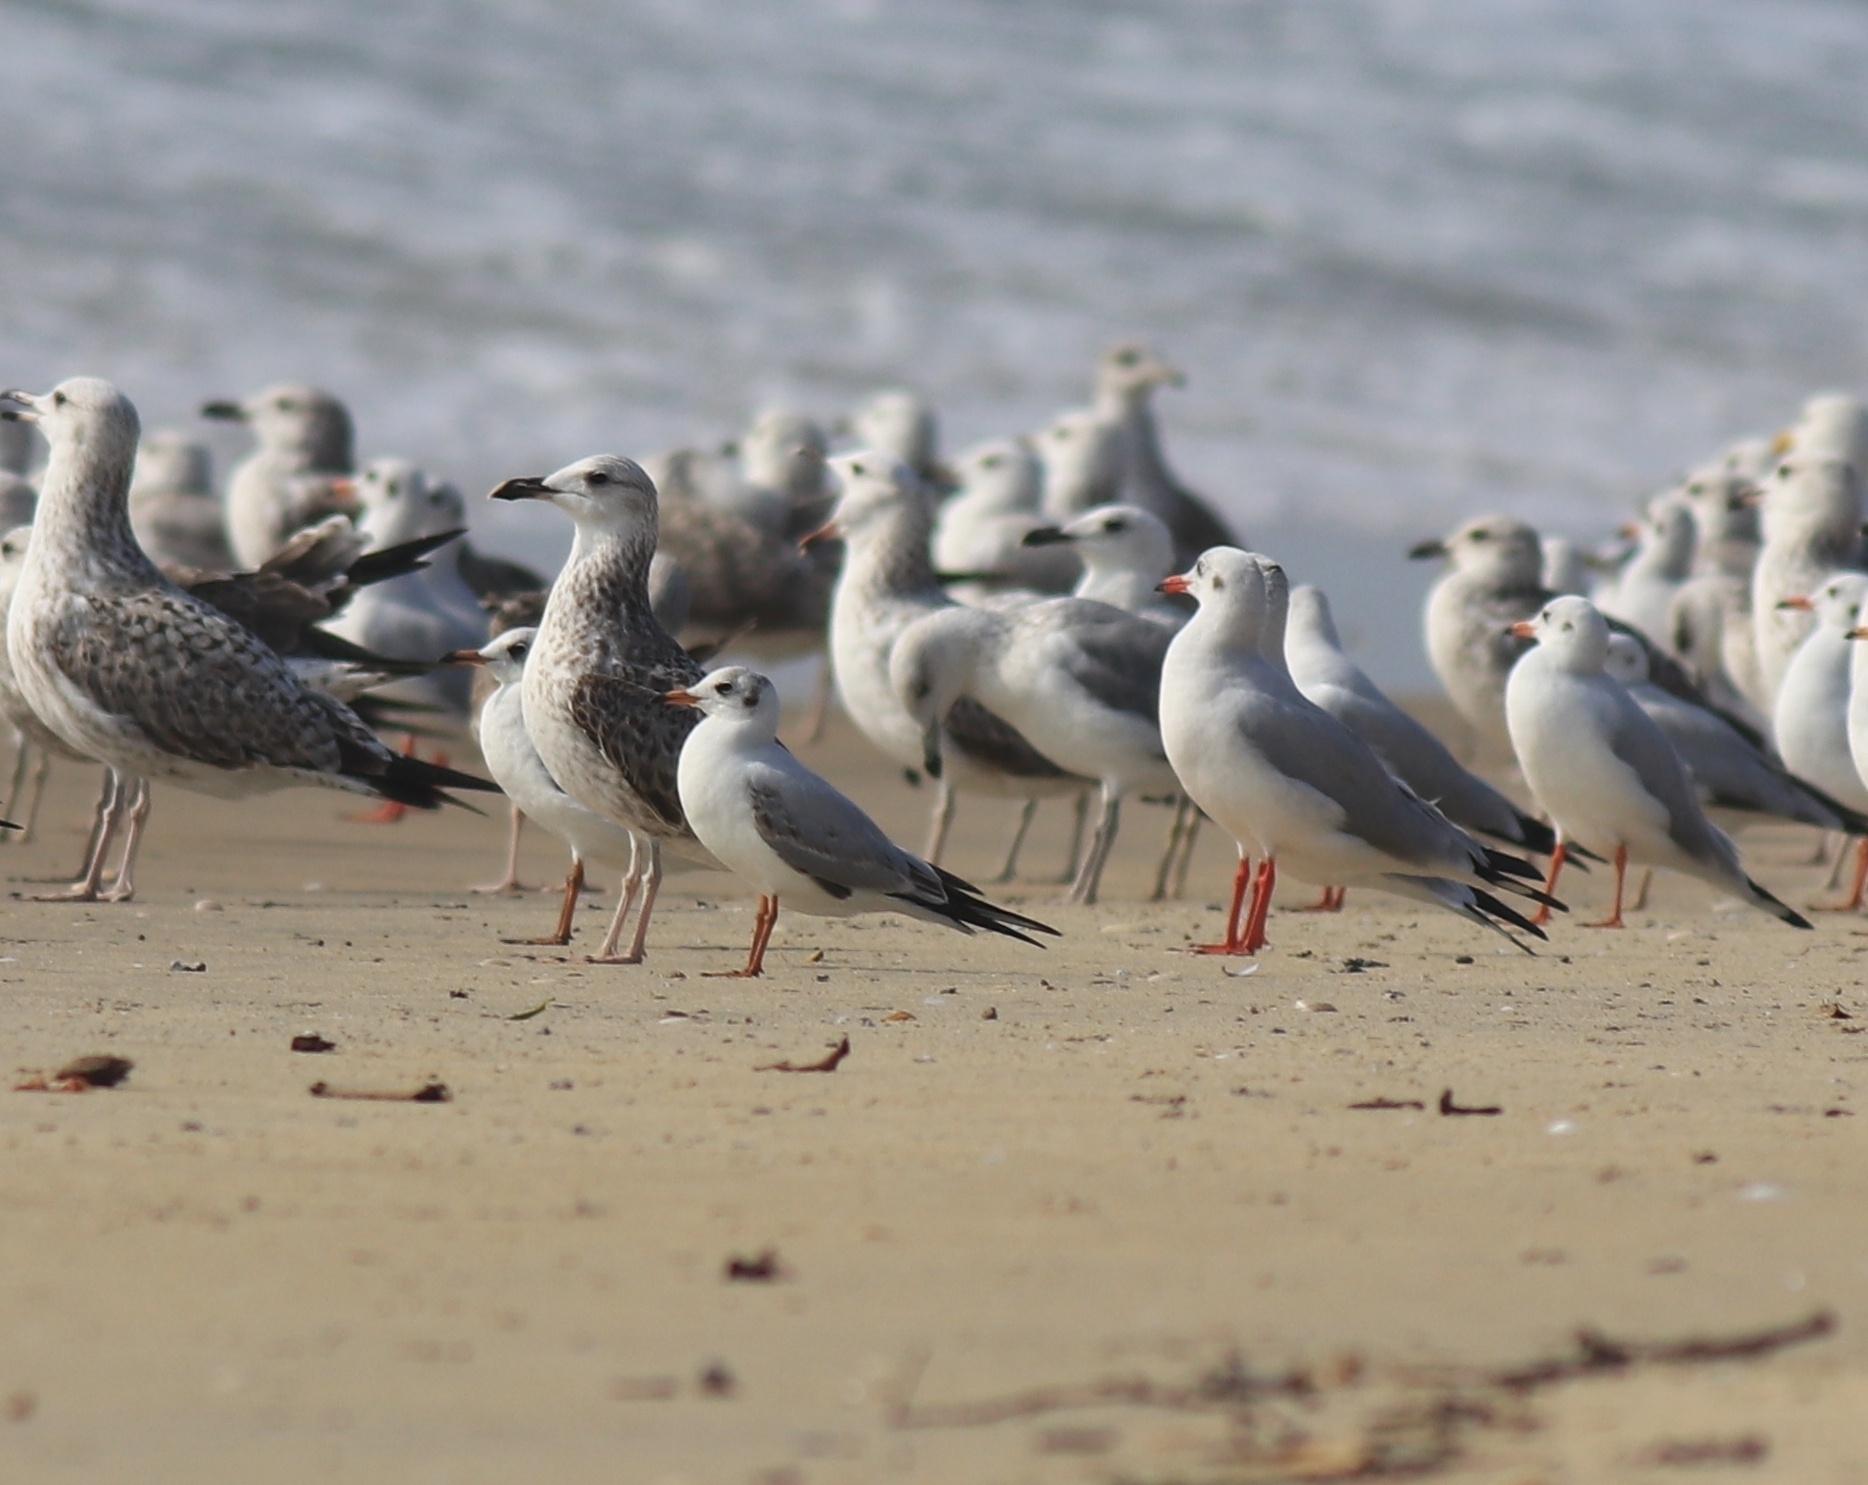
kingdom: Animalia
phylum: Chordata
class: Aves
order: Charadriiformes
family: Laridae
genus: Chroicocephalus
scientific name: Chroicocephalus ridibundus
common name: Black-headed gull
